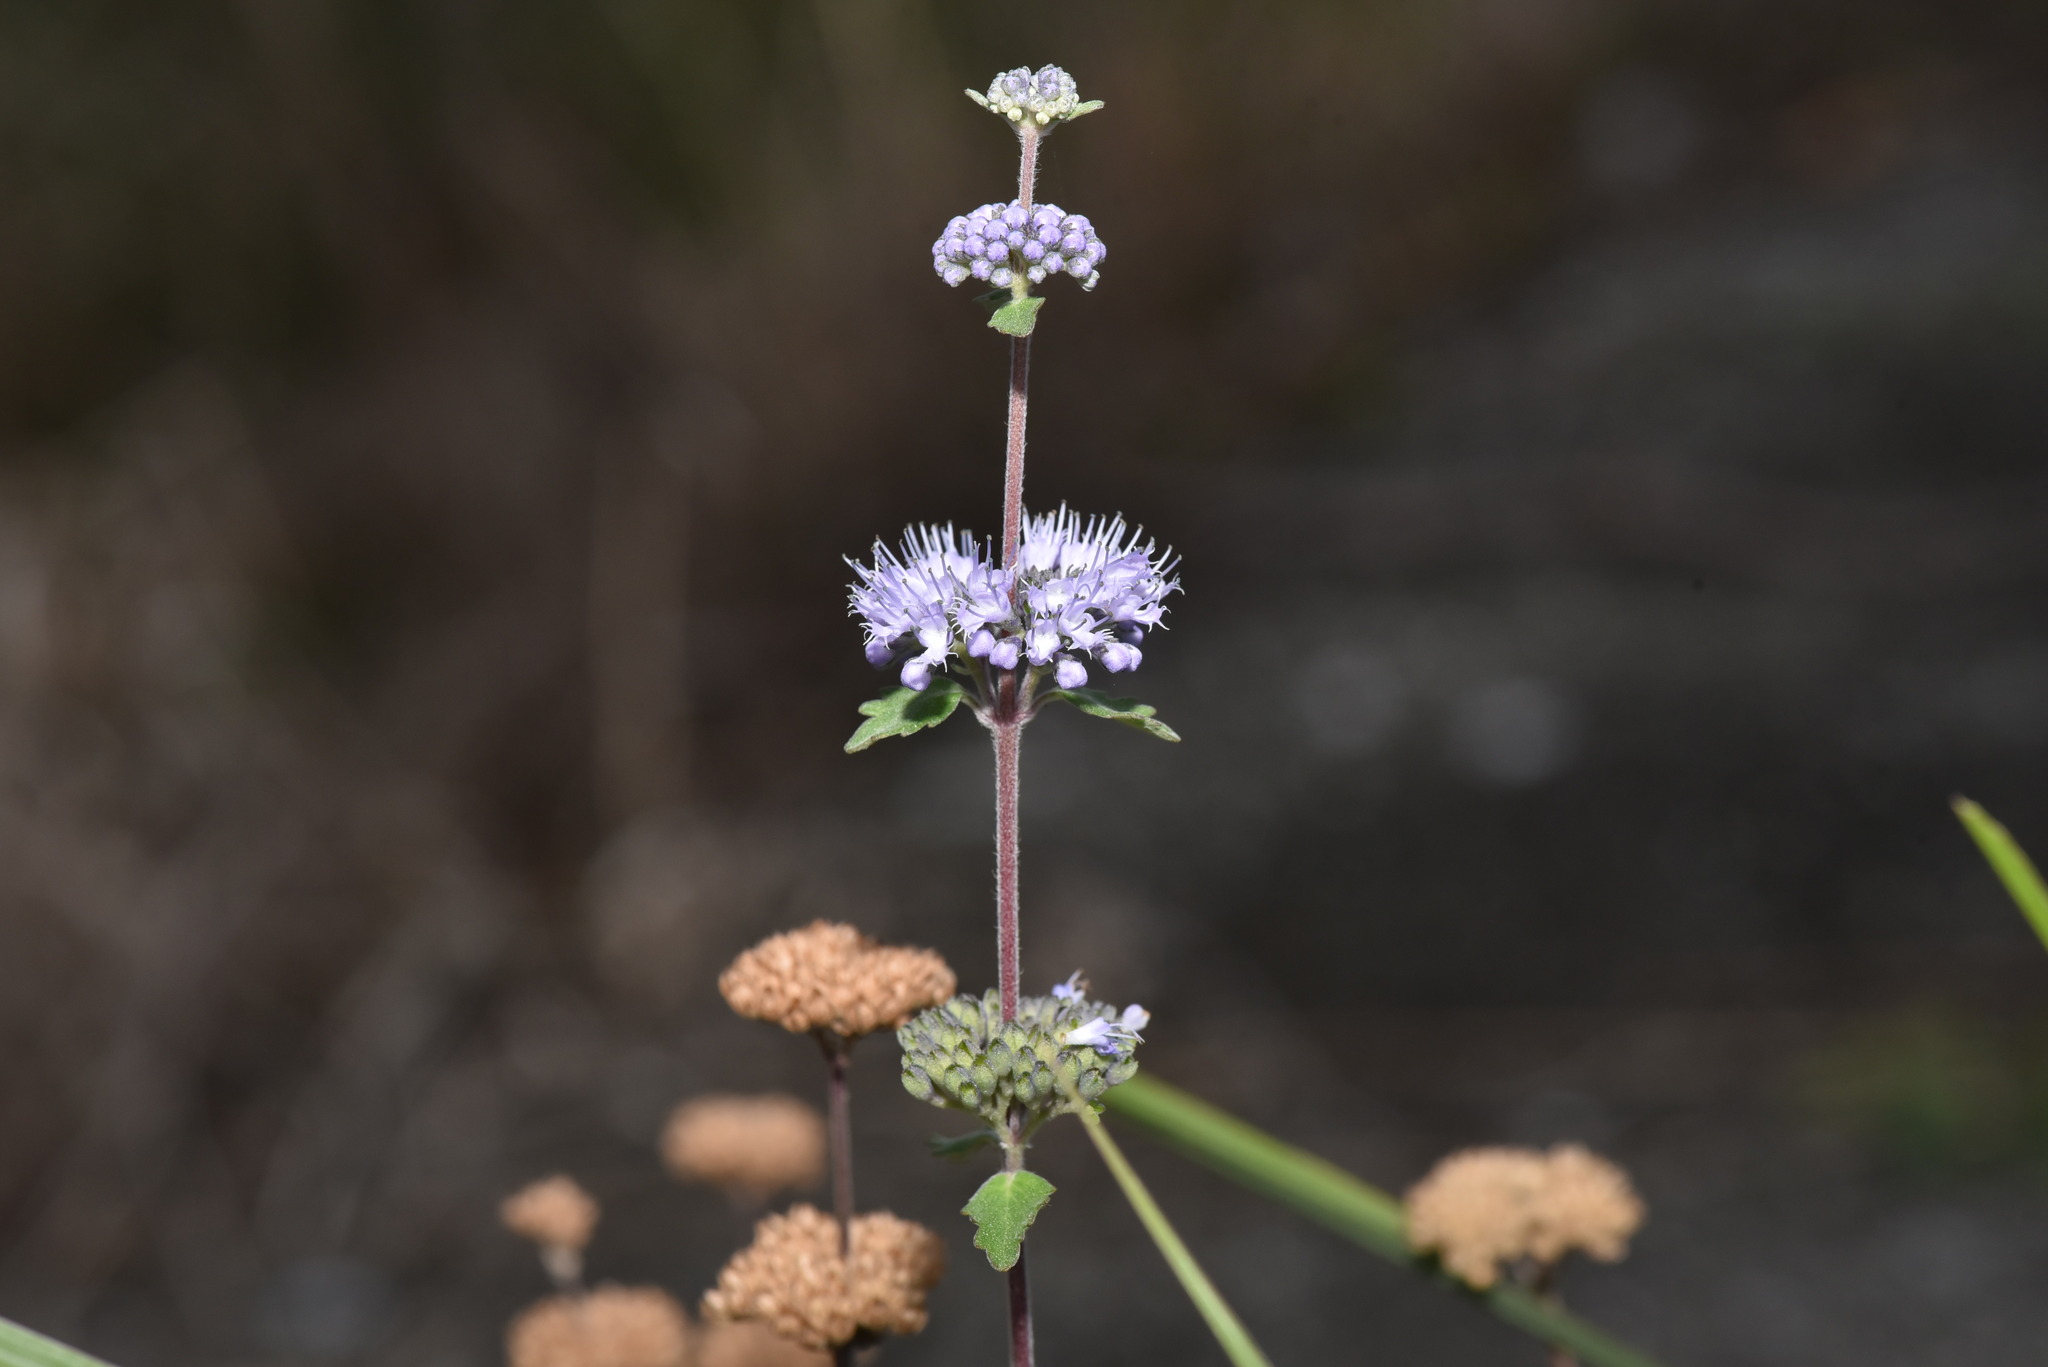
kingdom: Plantae
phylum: Tracheophyta
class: Magnoliopsida
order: Lamiales
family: Lamiaceae
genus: Caryopteris
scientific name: Caryopteris incana
